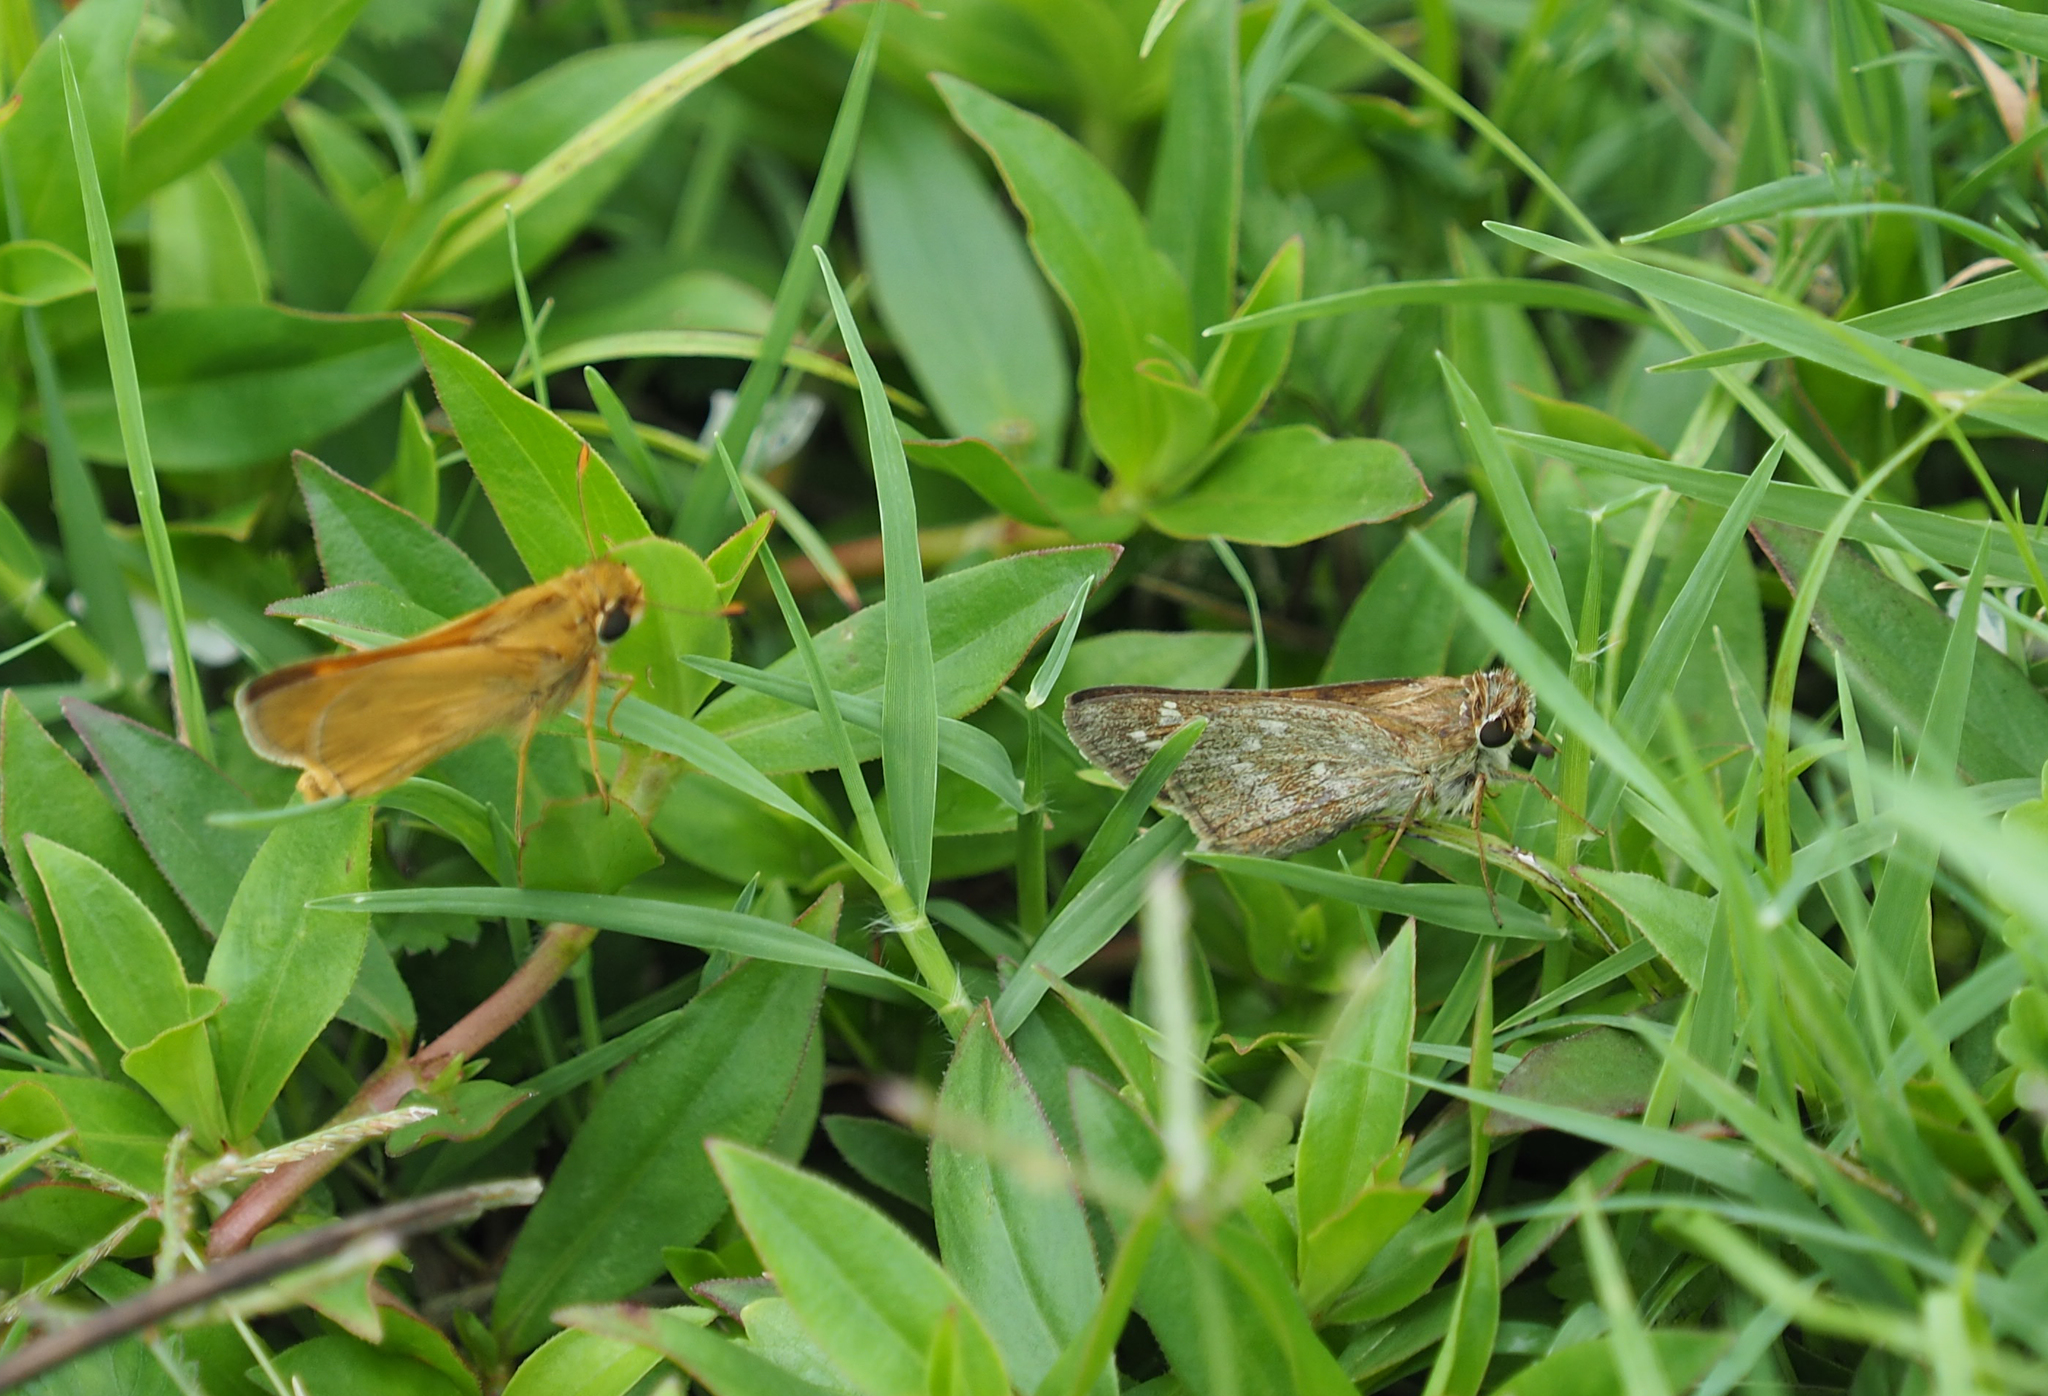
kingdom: Animalia
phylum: Arthropoda
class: Insecta
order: Lepidoptera
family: Hesperiidae
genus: Atalopedes
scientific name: Atalopedes
